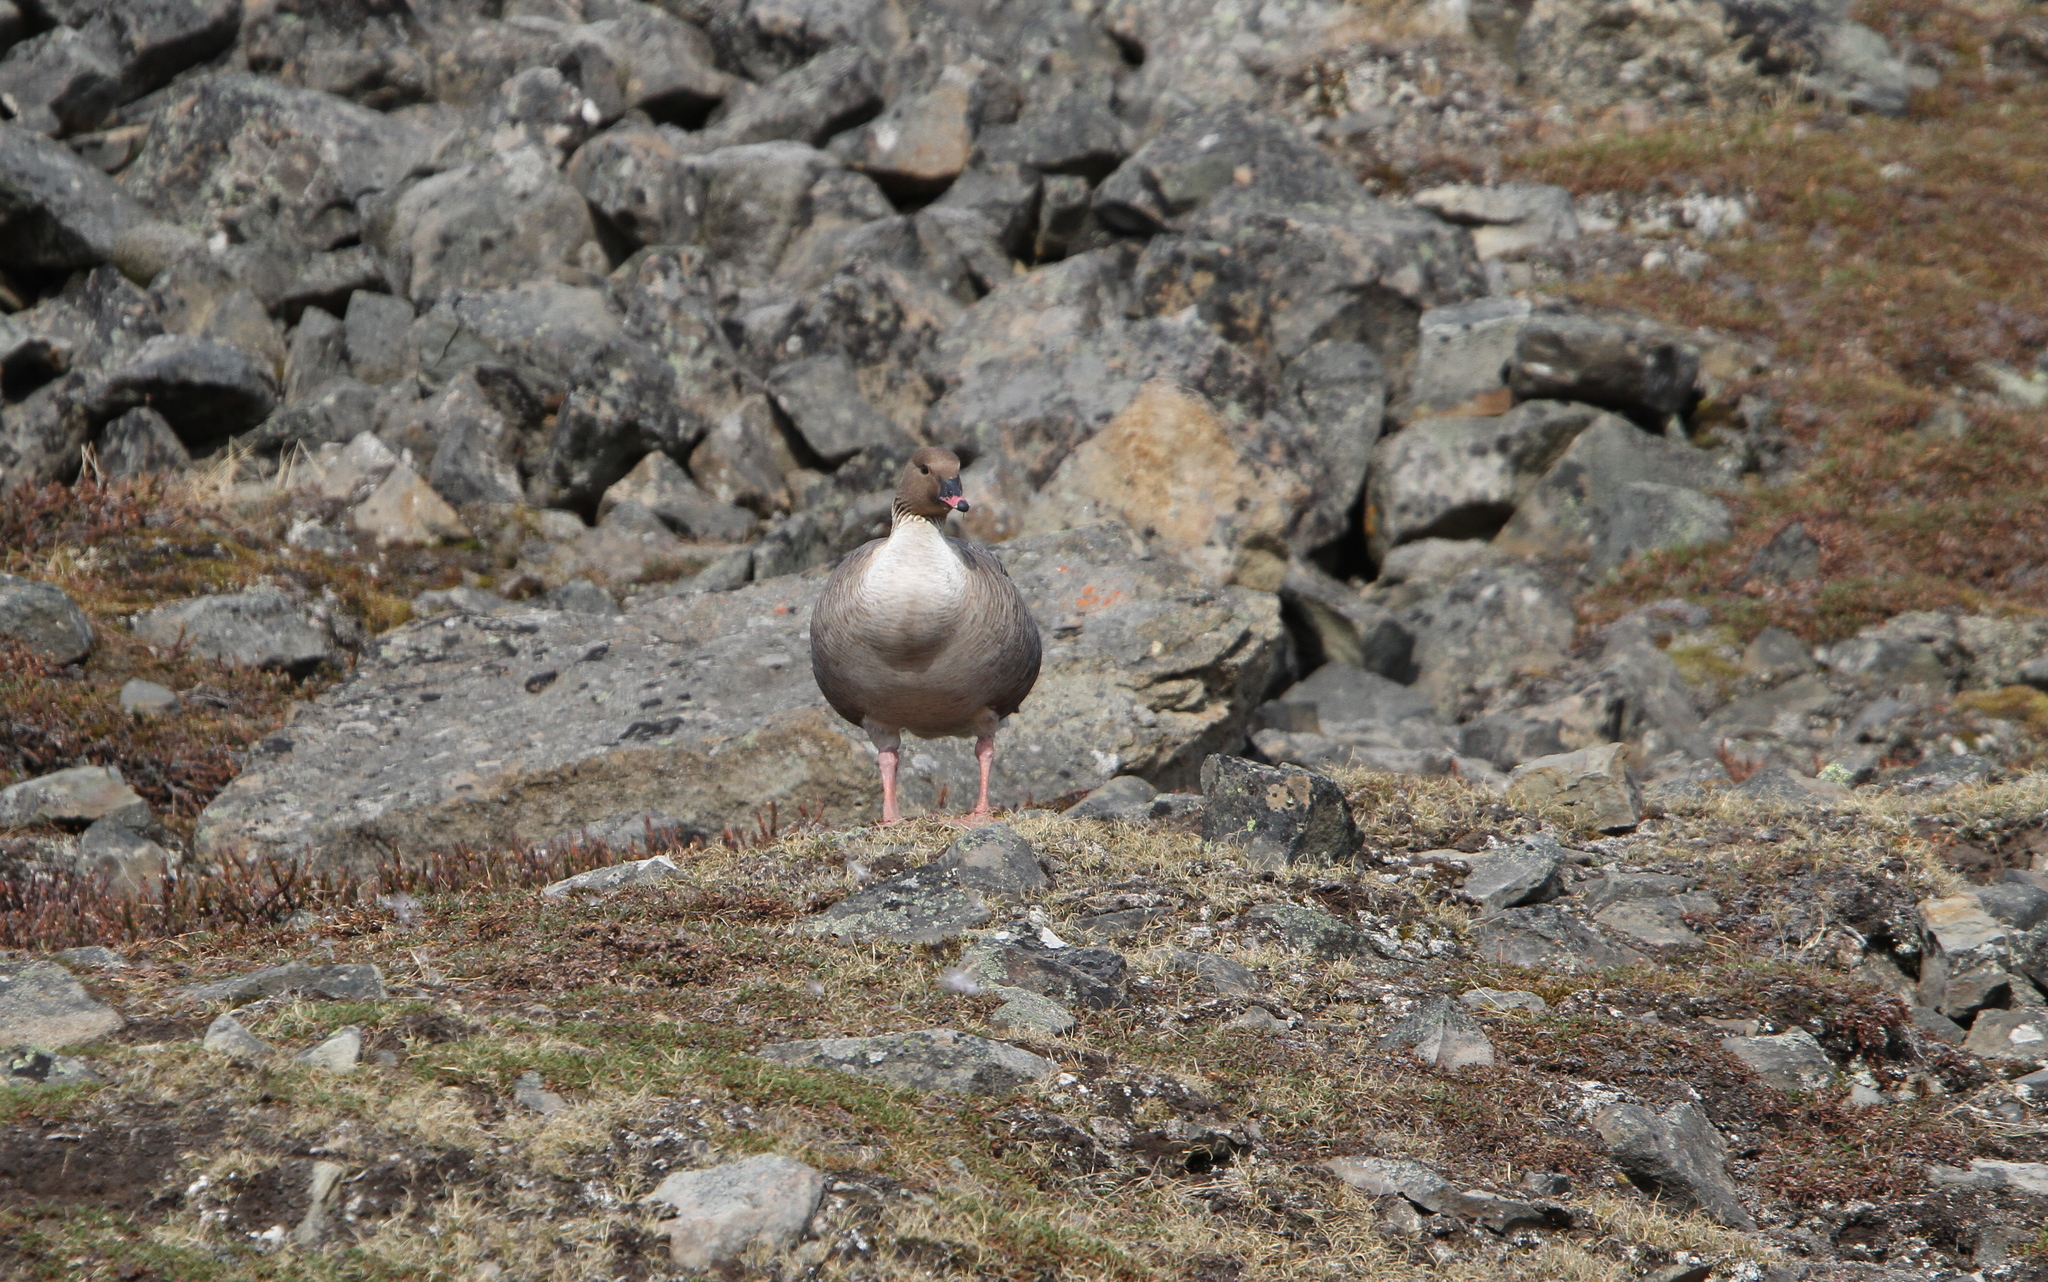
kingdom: Animalia
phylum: Chordata
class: Aves
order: Anseriformes
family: Anatidae
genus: Anser
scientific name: Anser brachyrhynchus
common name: Pink-footed goose
